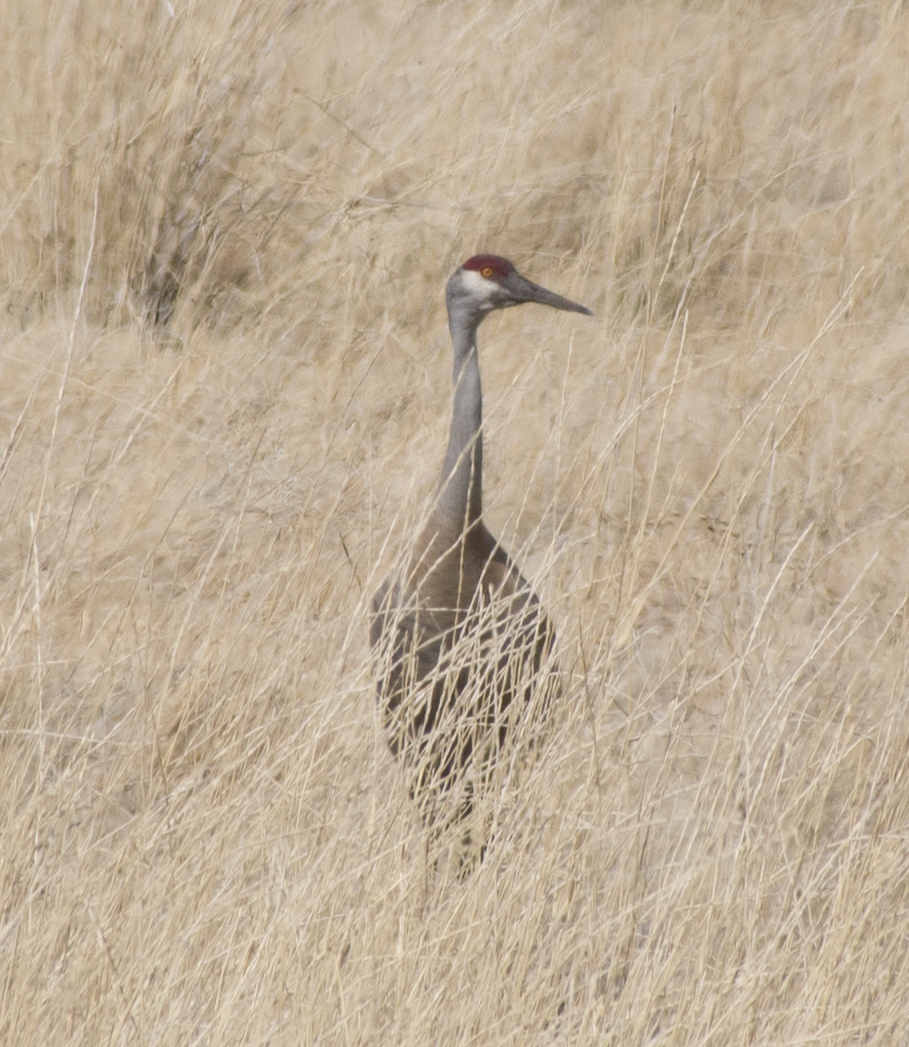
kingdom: Animalia
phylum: Chordata
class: Aves
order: Gruiformes
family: Gruidae
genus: Grus
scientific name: Grus canadensis
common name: Sandhill crane
